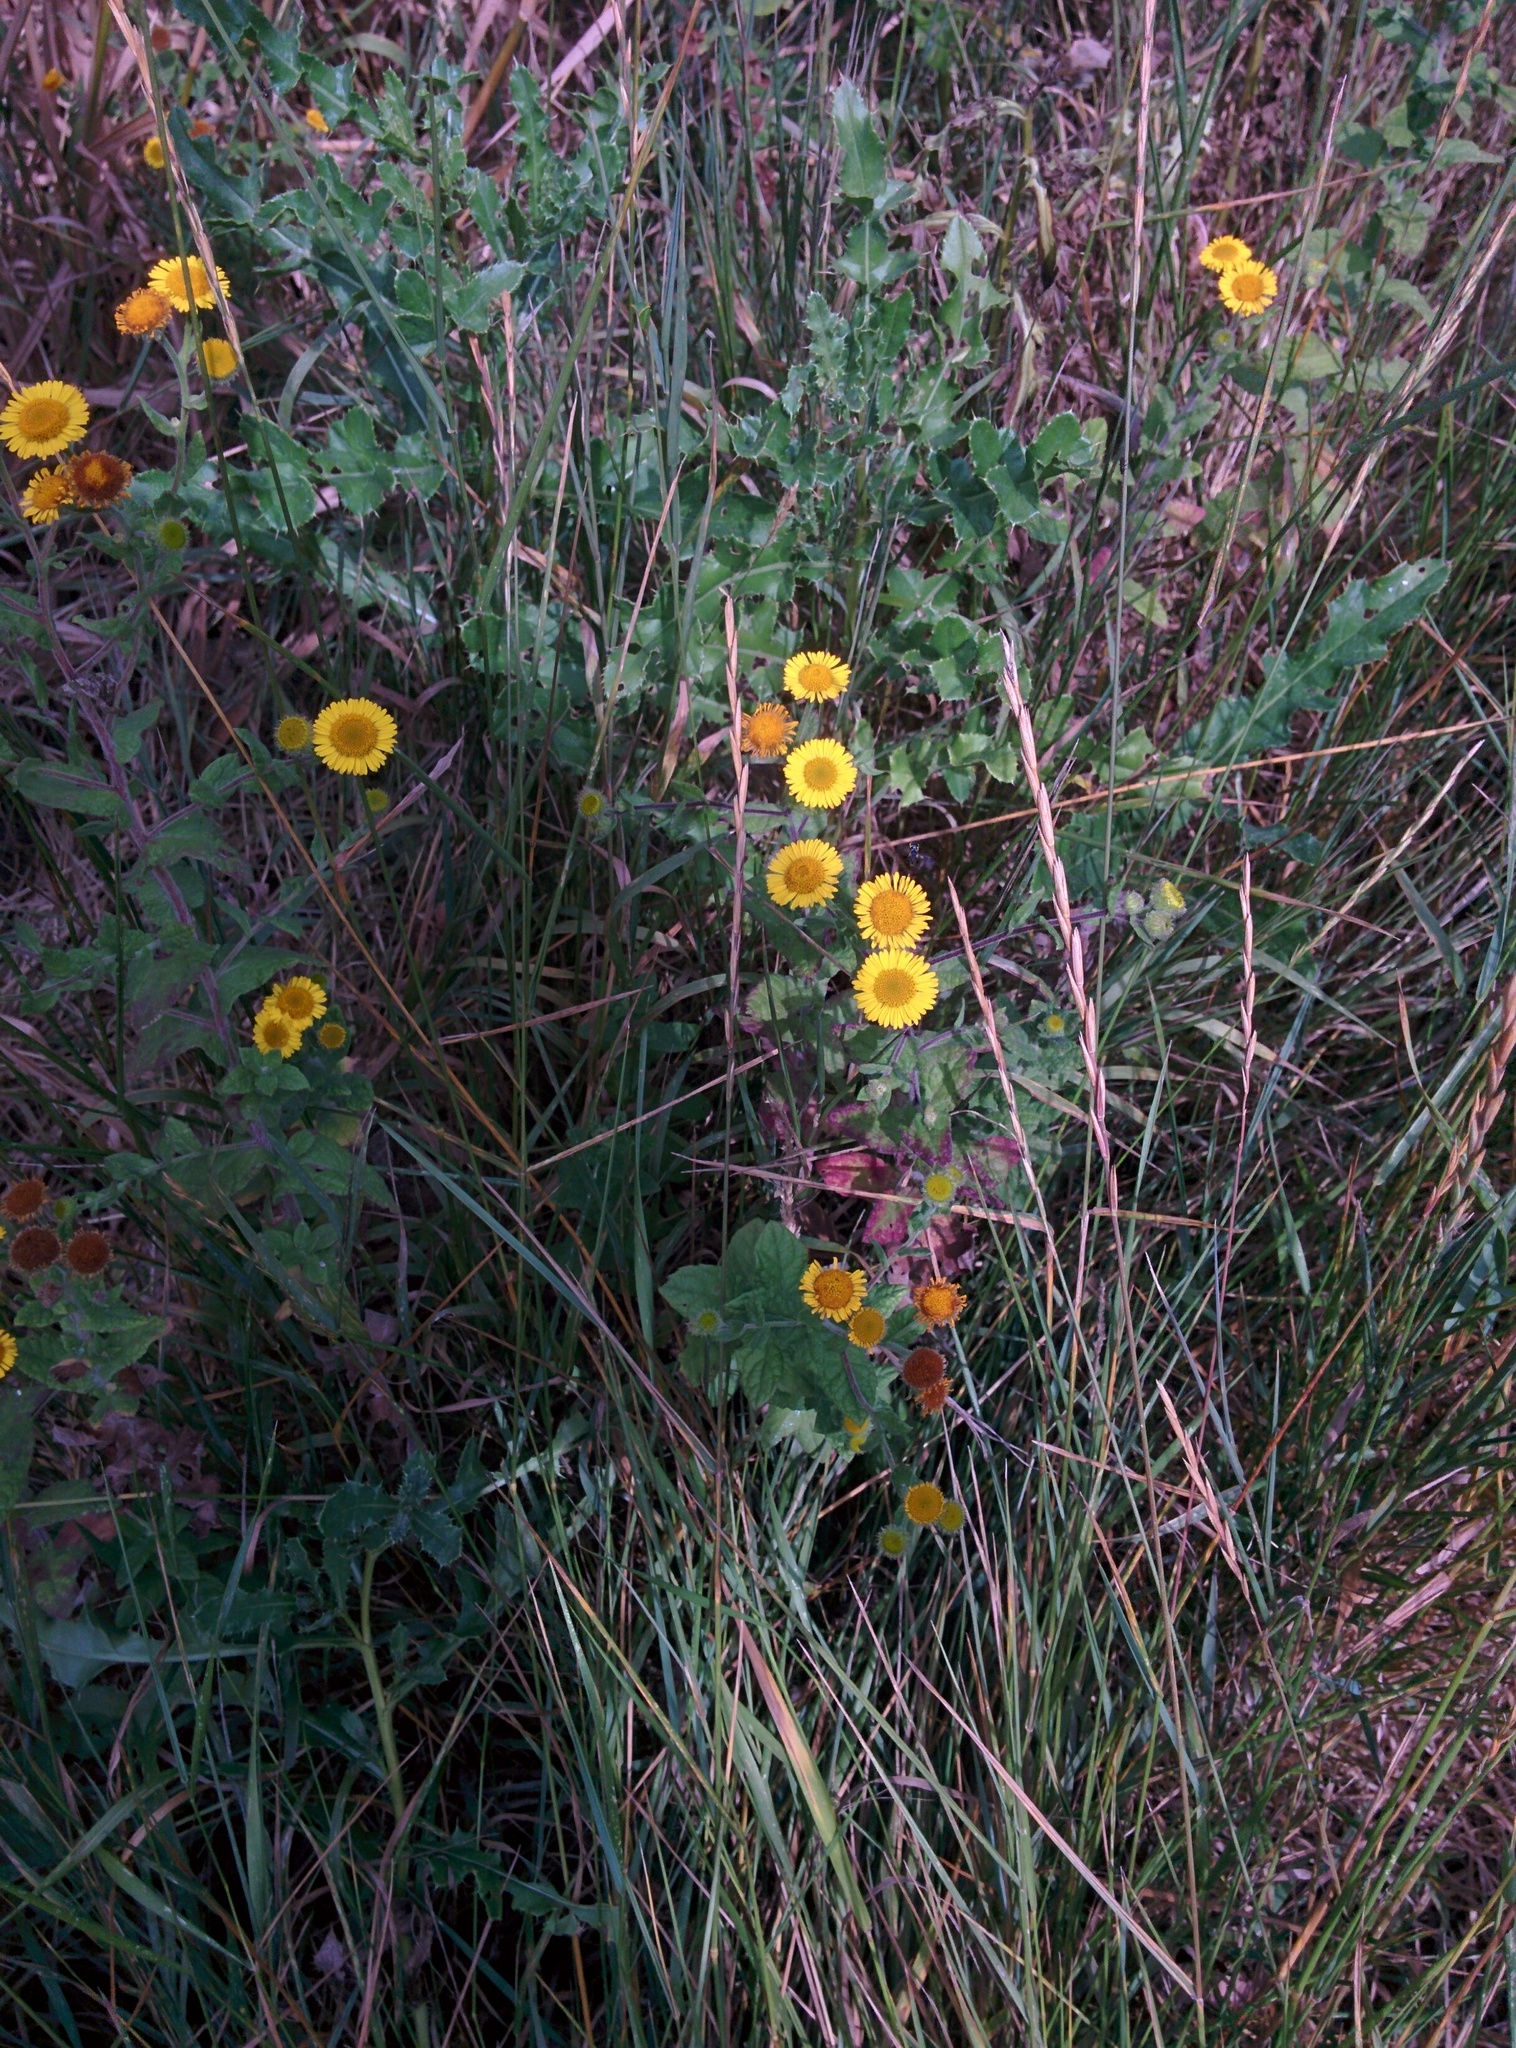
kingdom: Plantae
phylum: Tracheophyta
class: Magnoliopsida
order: Asterales
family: Asteraceae
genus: Pulicaria
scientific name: Pulicaria dysenterica
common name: Common fleabane
